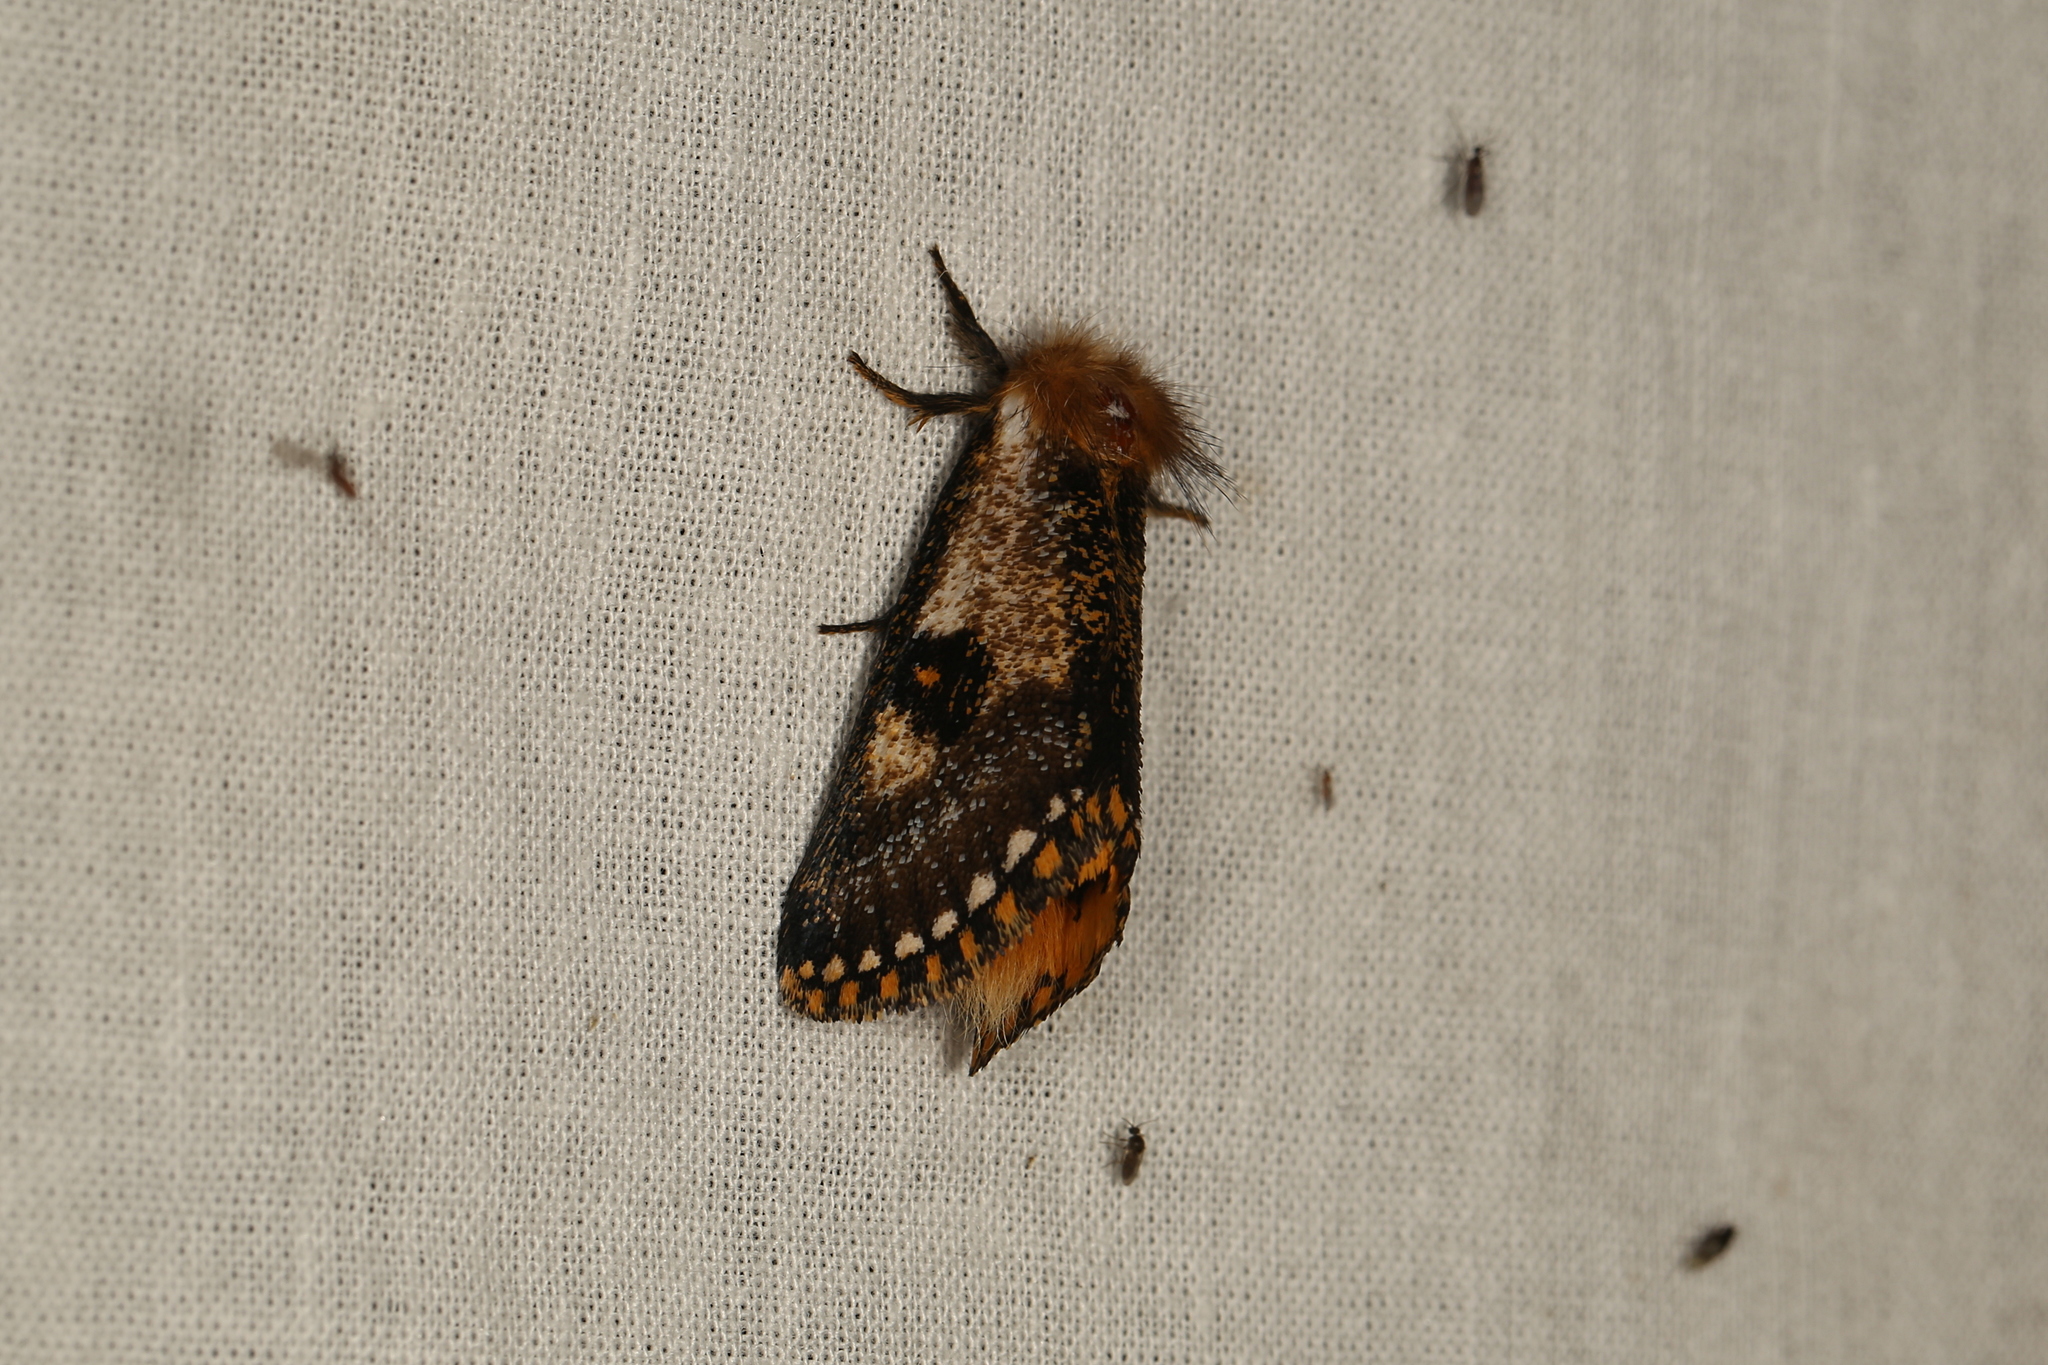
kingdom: Animalia
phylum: Arthropoda
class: Insecta
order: Lepidoptera
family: Notodontidae
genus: Epicoma
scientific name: Epicoma contristis
